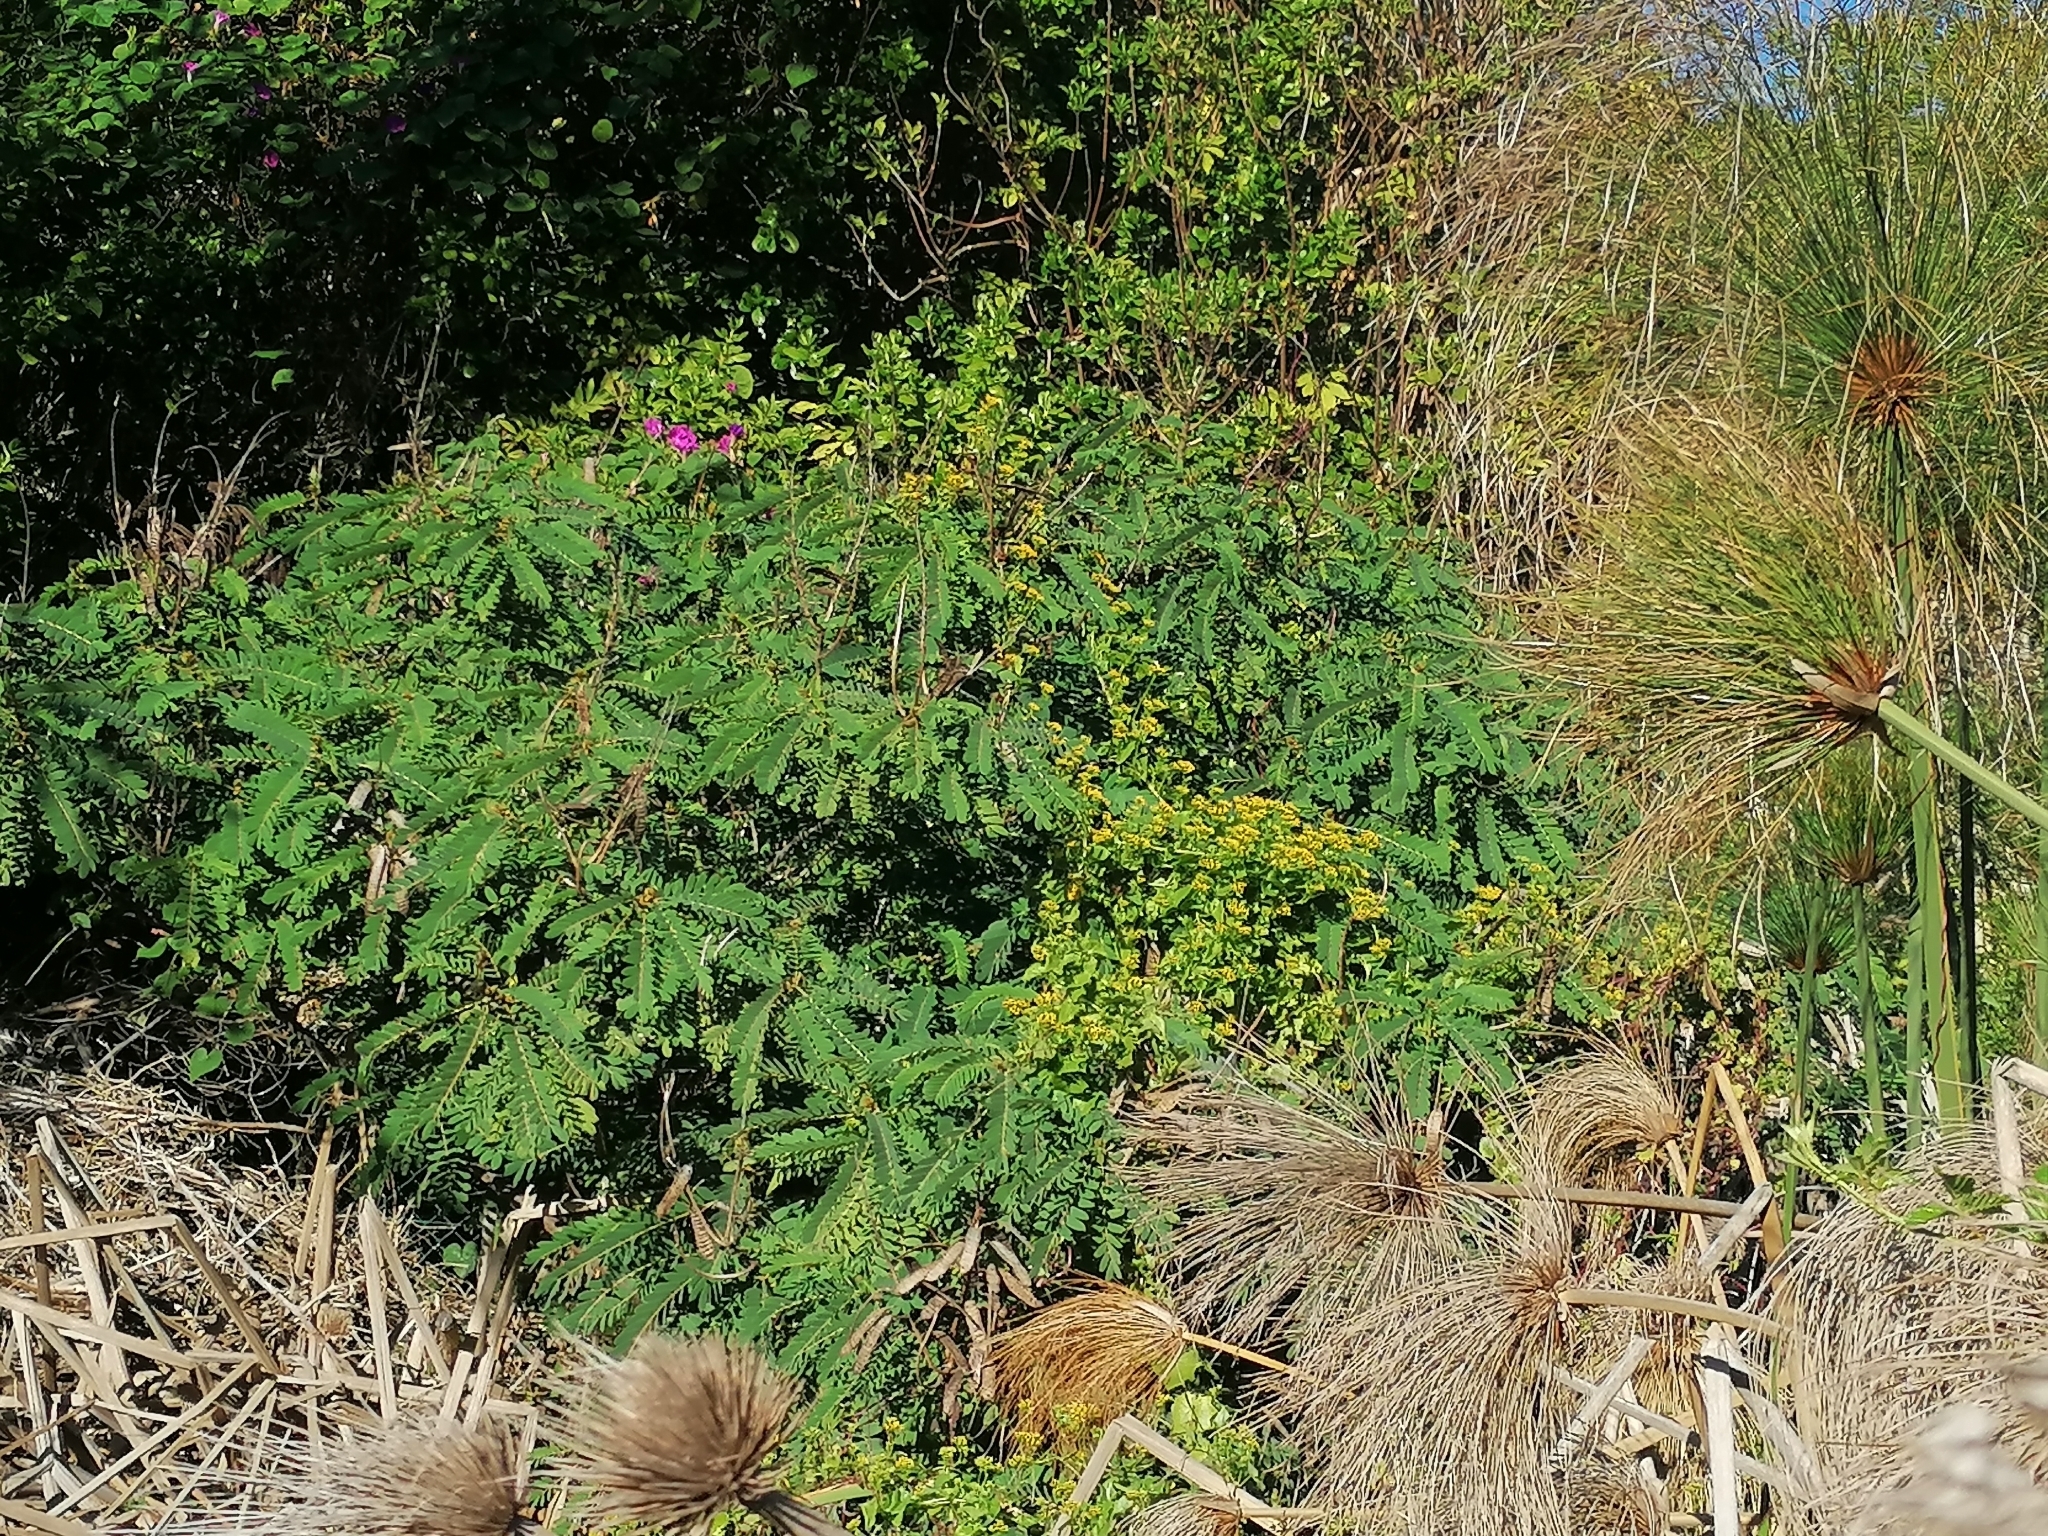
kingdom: Plantae
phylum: Tracheophyta
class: Magnoliopsida
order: Fabales
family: Fabaceae
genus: Senna
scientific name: Senna didymobotrya
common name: African senna
